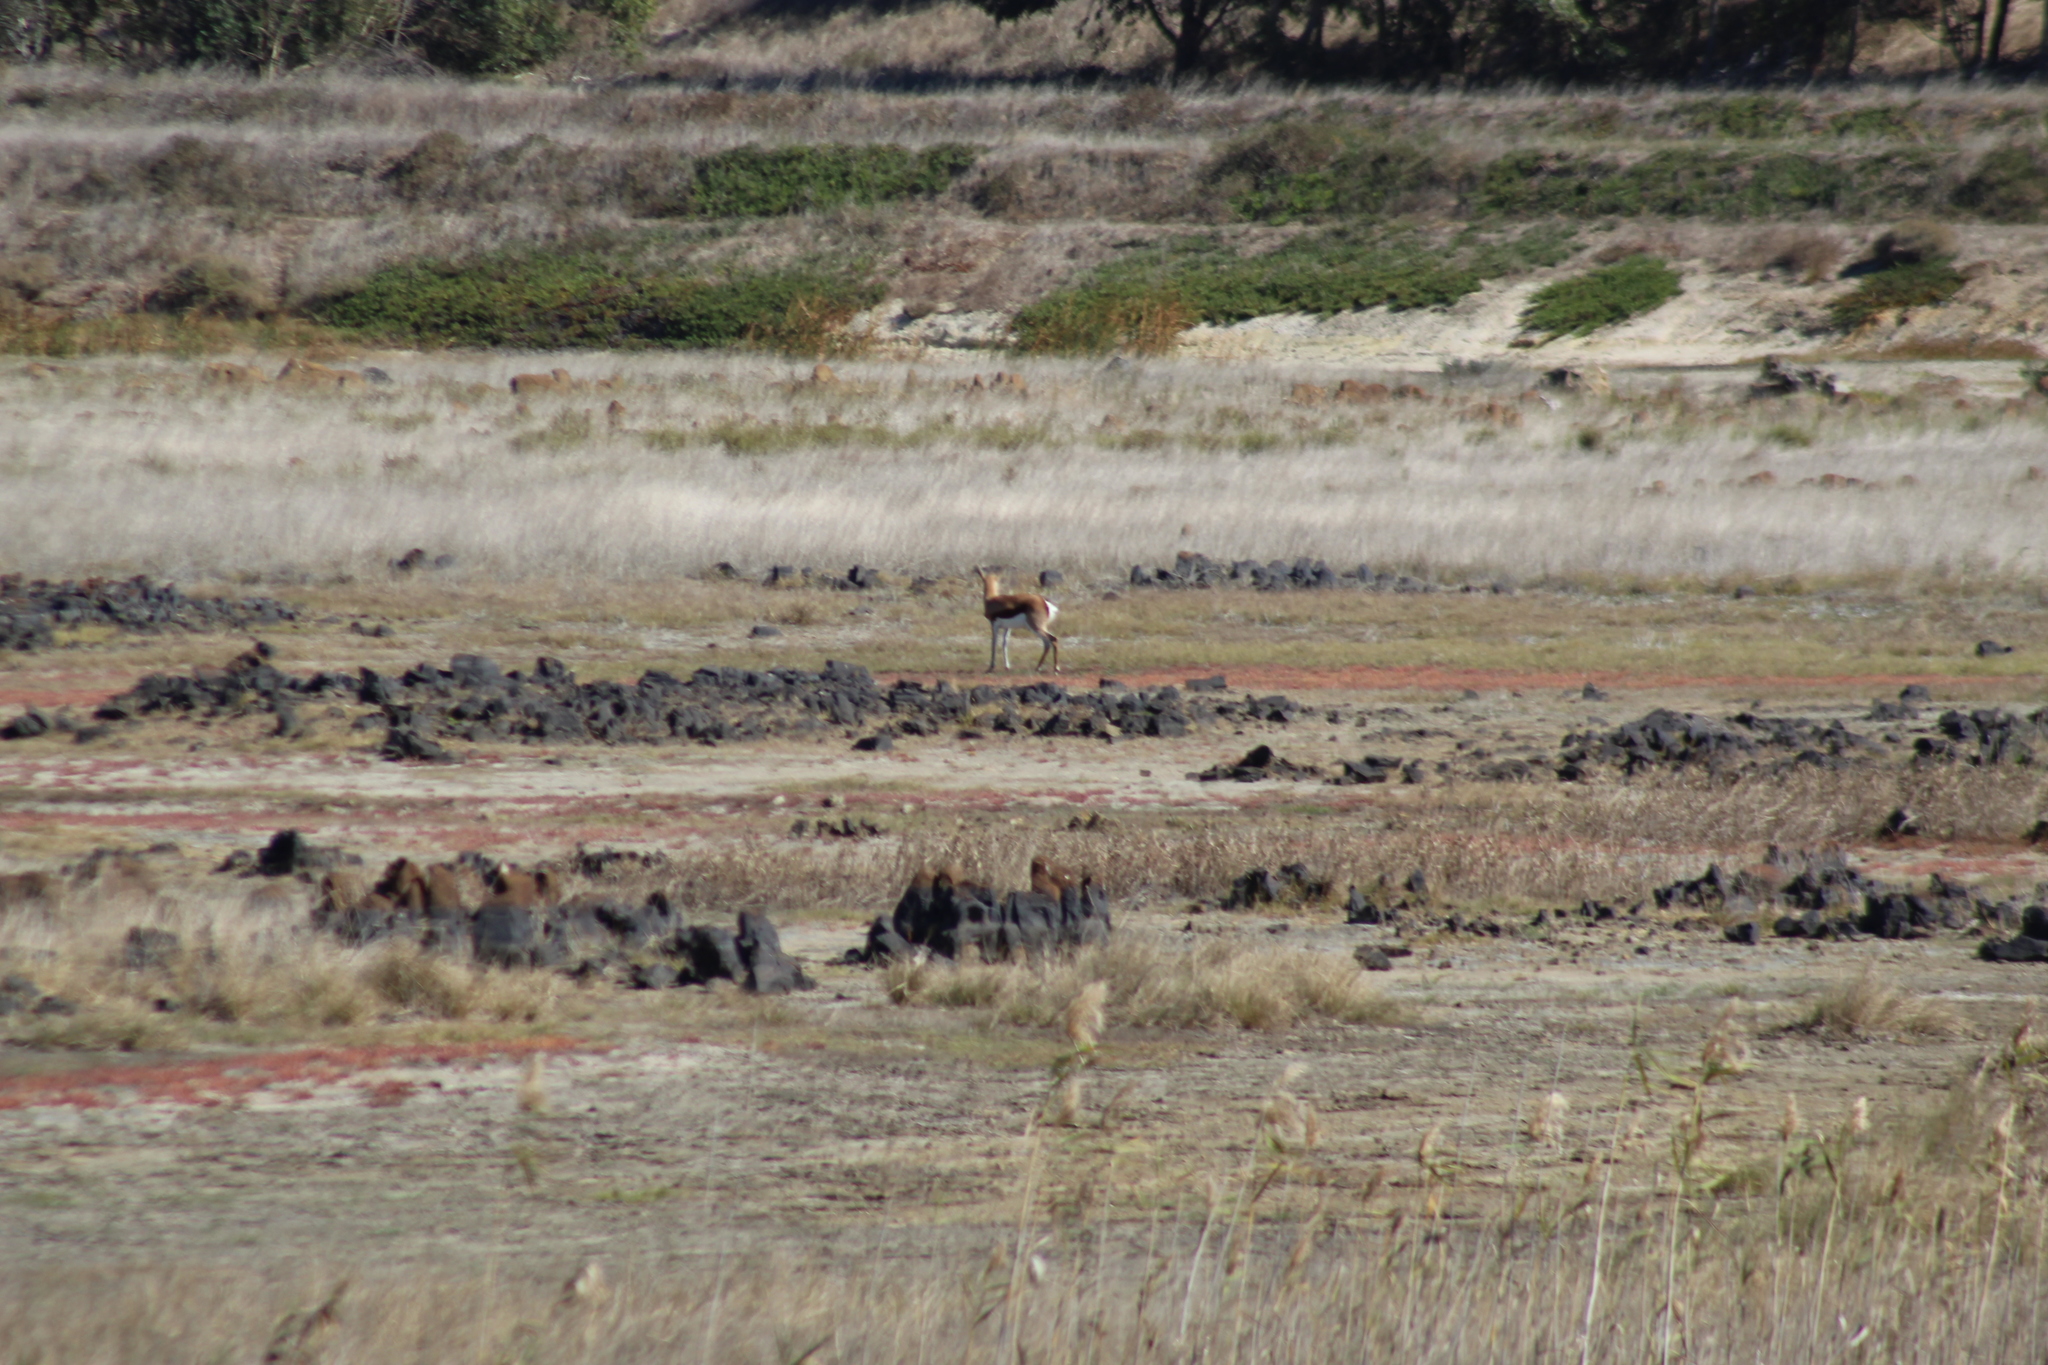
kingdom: Animalia
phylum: Chordata
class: Mammalia
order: Artiodactyla
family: Bovidae
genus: Antidorcas
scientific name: Antidorcas marsupialis
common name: Springbok
